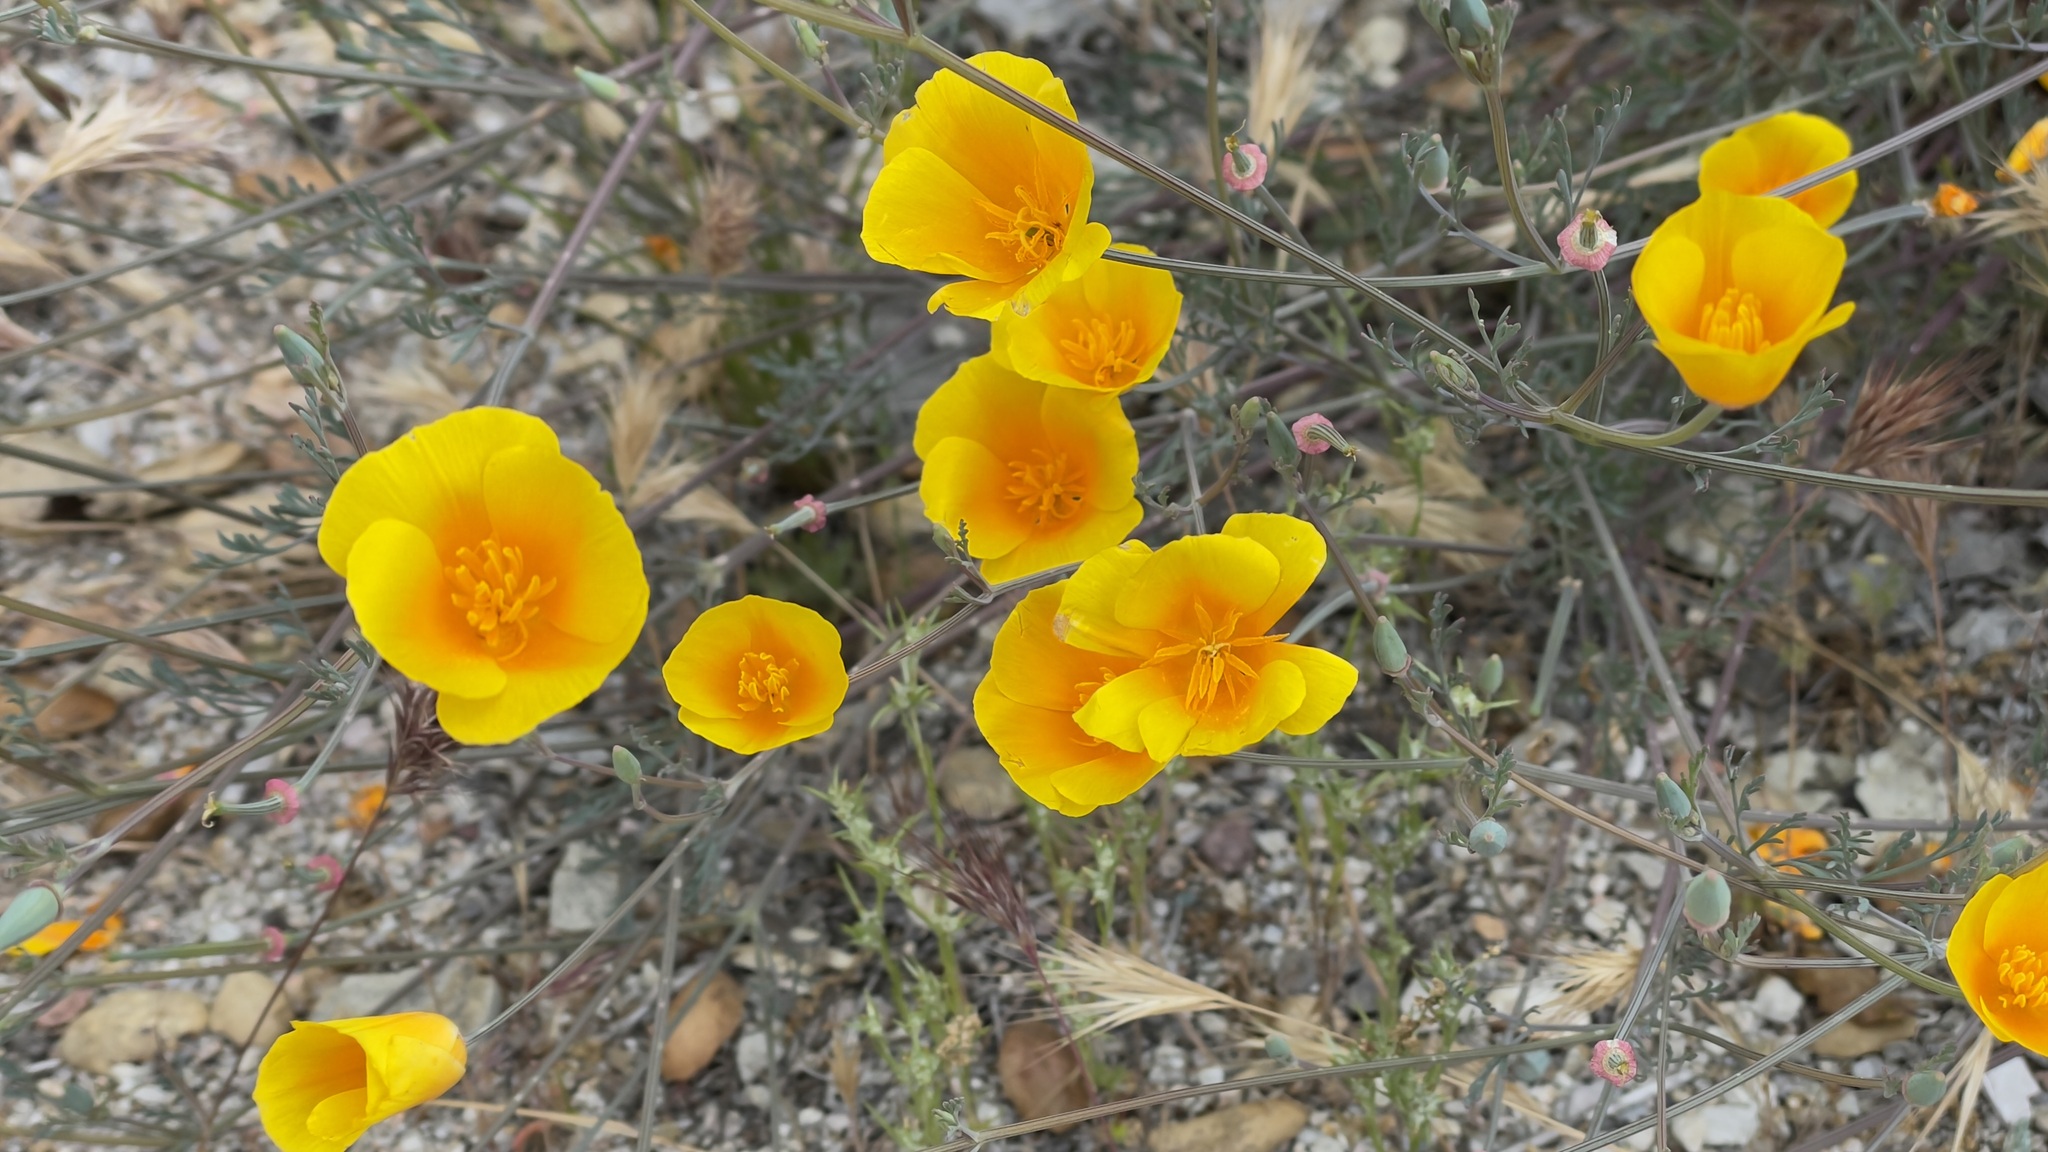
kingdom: Plantae
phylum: Tracheophyta
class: Magnoliopsida
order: Ranunculales
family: Papaveraceae
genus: Eschscholzia
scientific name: Eschscholzia californica
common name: California poppy
